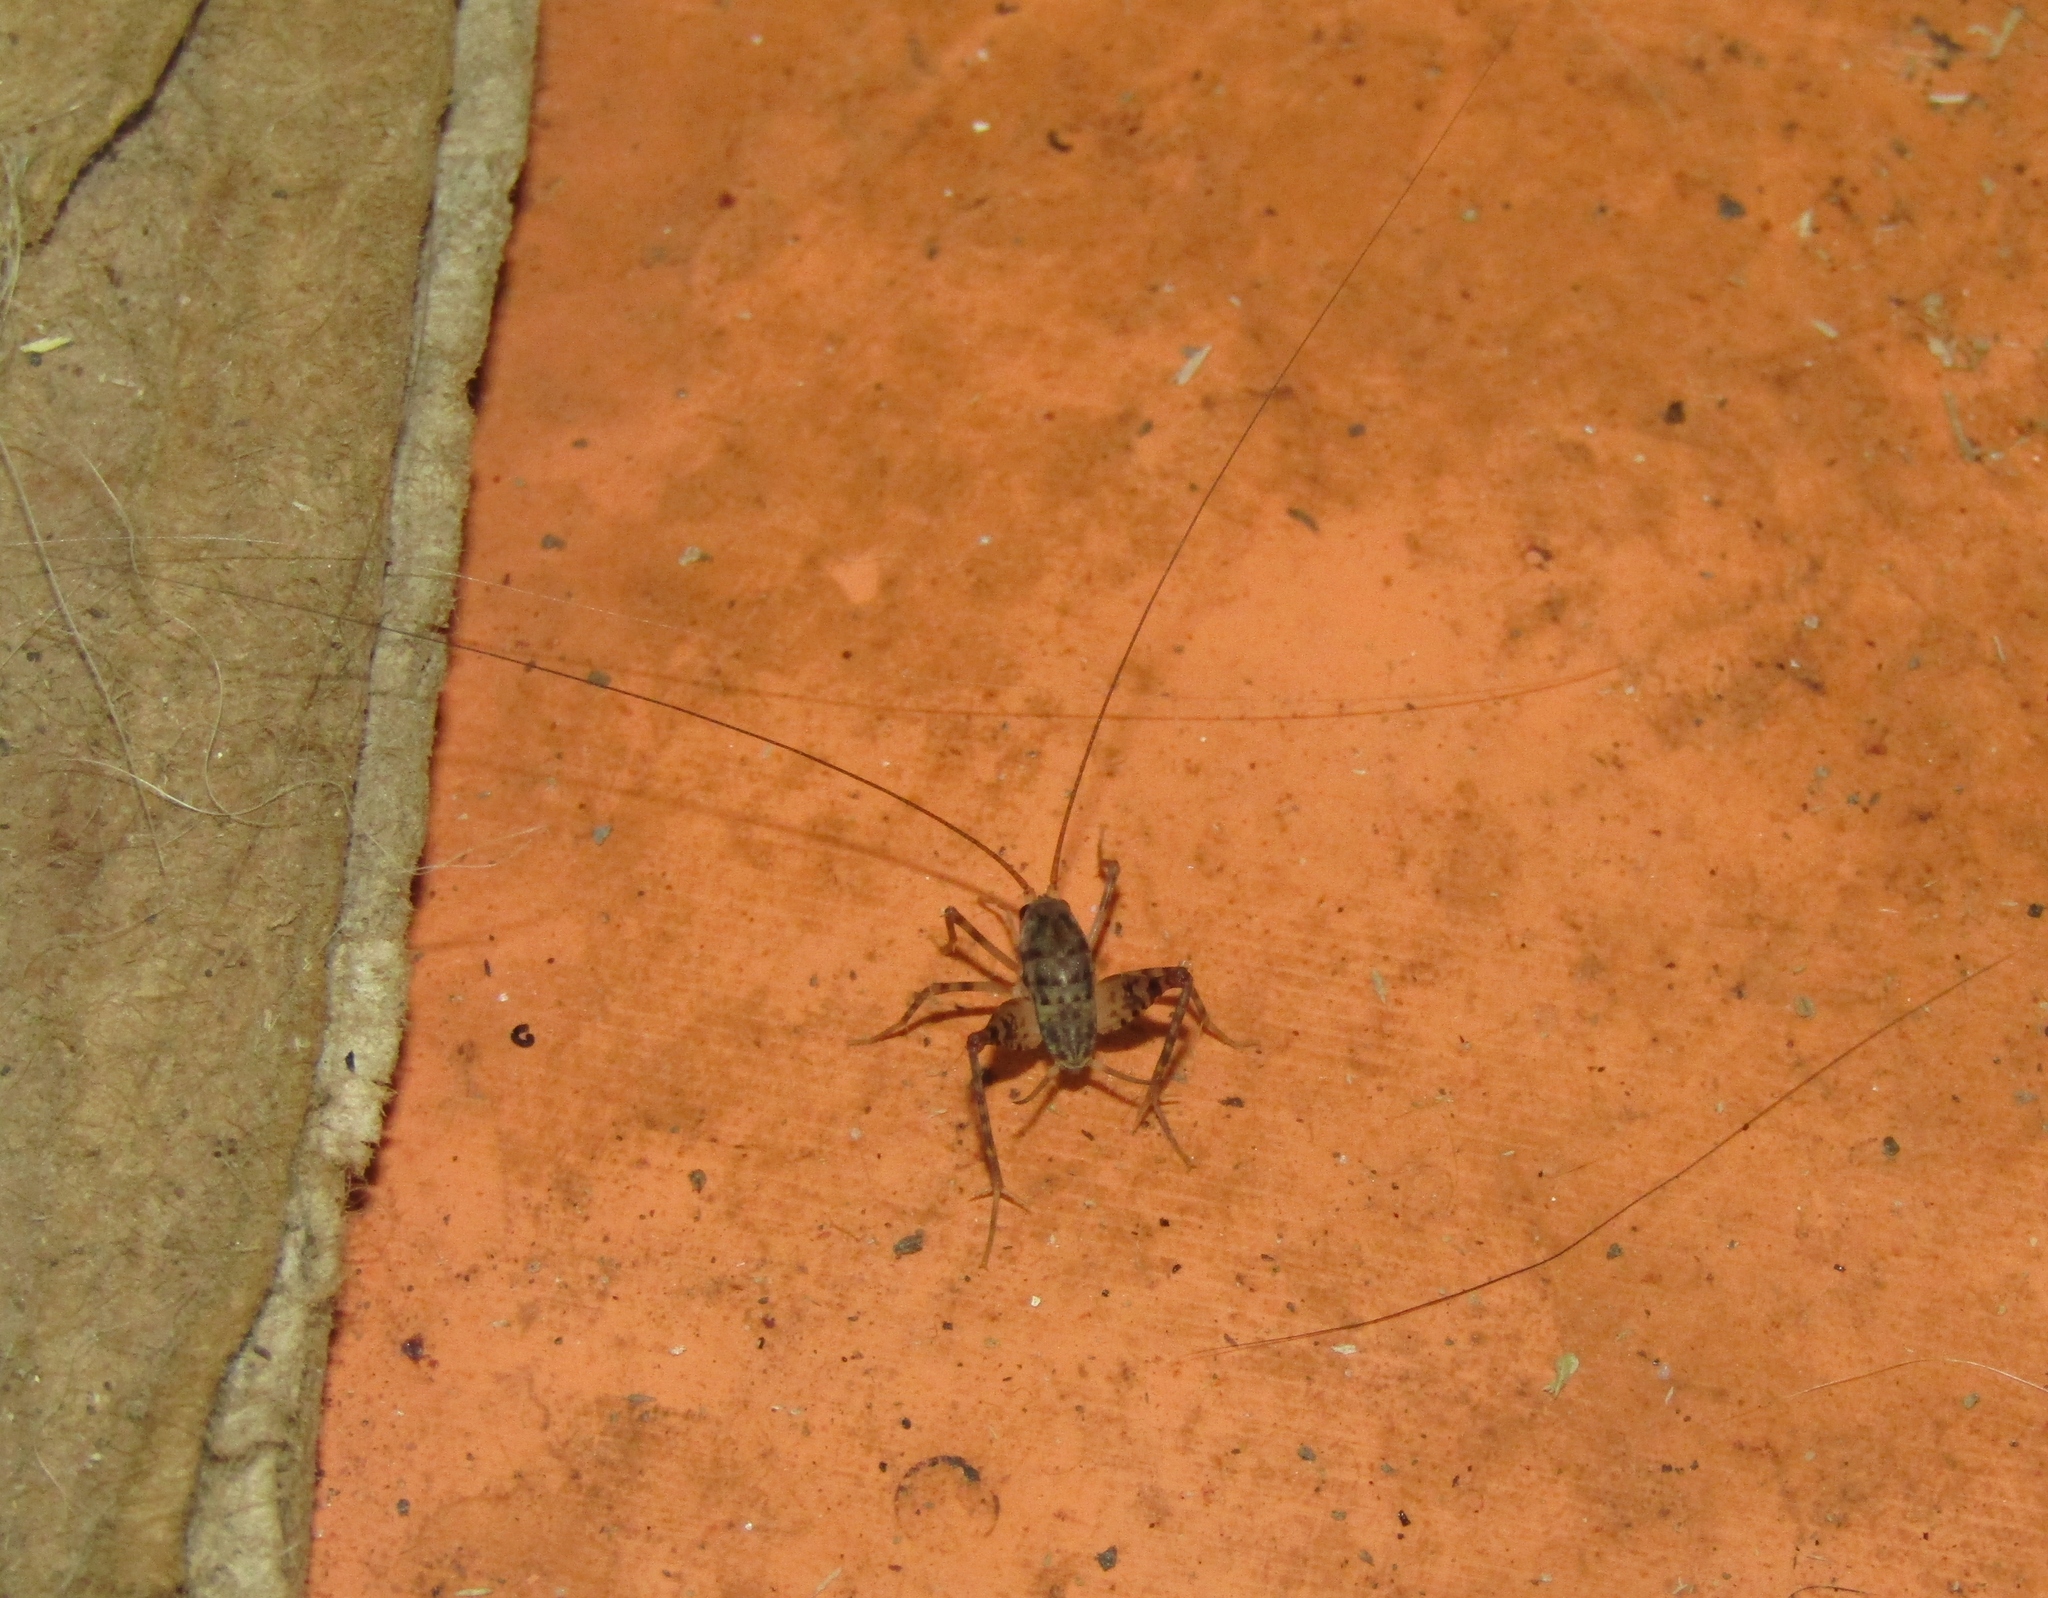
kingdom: Animalia
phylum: Arthropoda
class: Insecta
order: Orthoptera
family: Rhaphidophoridae
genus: Tachycines
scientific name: Tachycines asynamorus
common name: Greenhouse camel cricket
